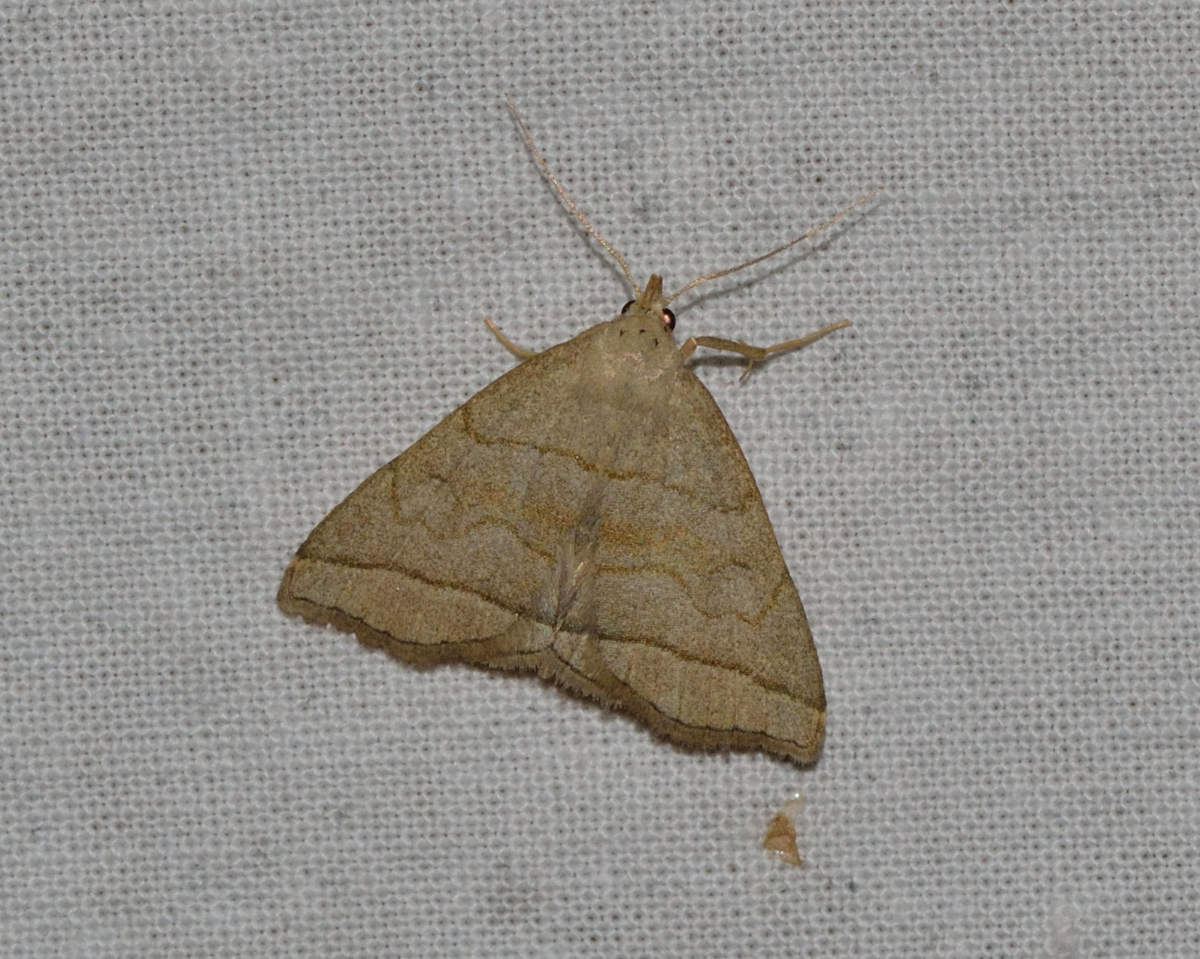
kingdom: Animalia
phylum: Arthropoda
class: Insecta
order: Lepidoptera
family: Erebidae
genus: Herminia
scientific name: Herminia tarsicrinalis
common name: Shaded fan-foot
